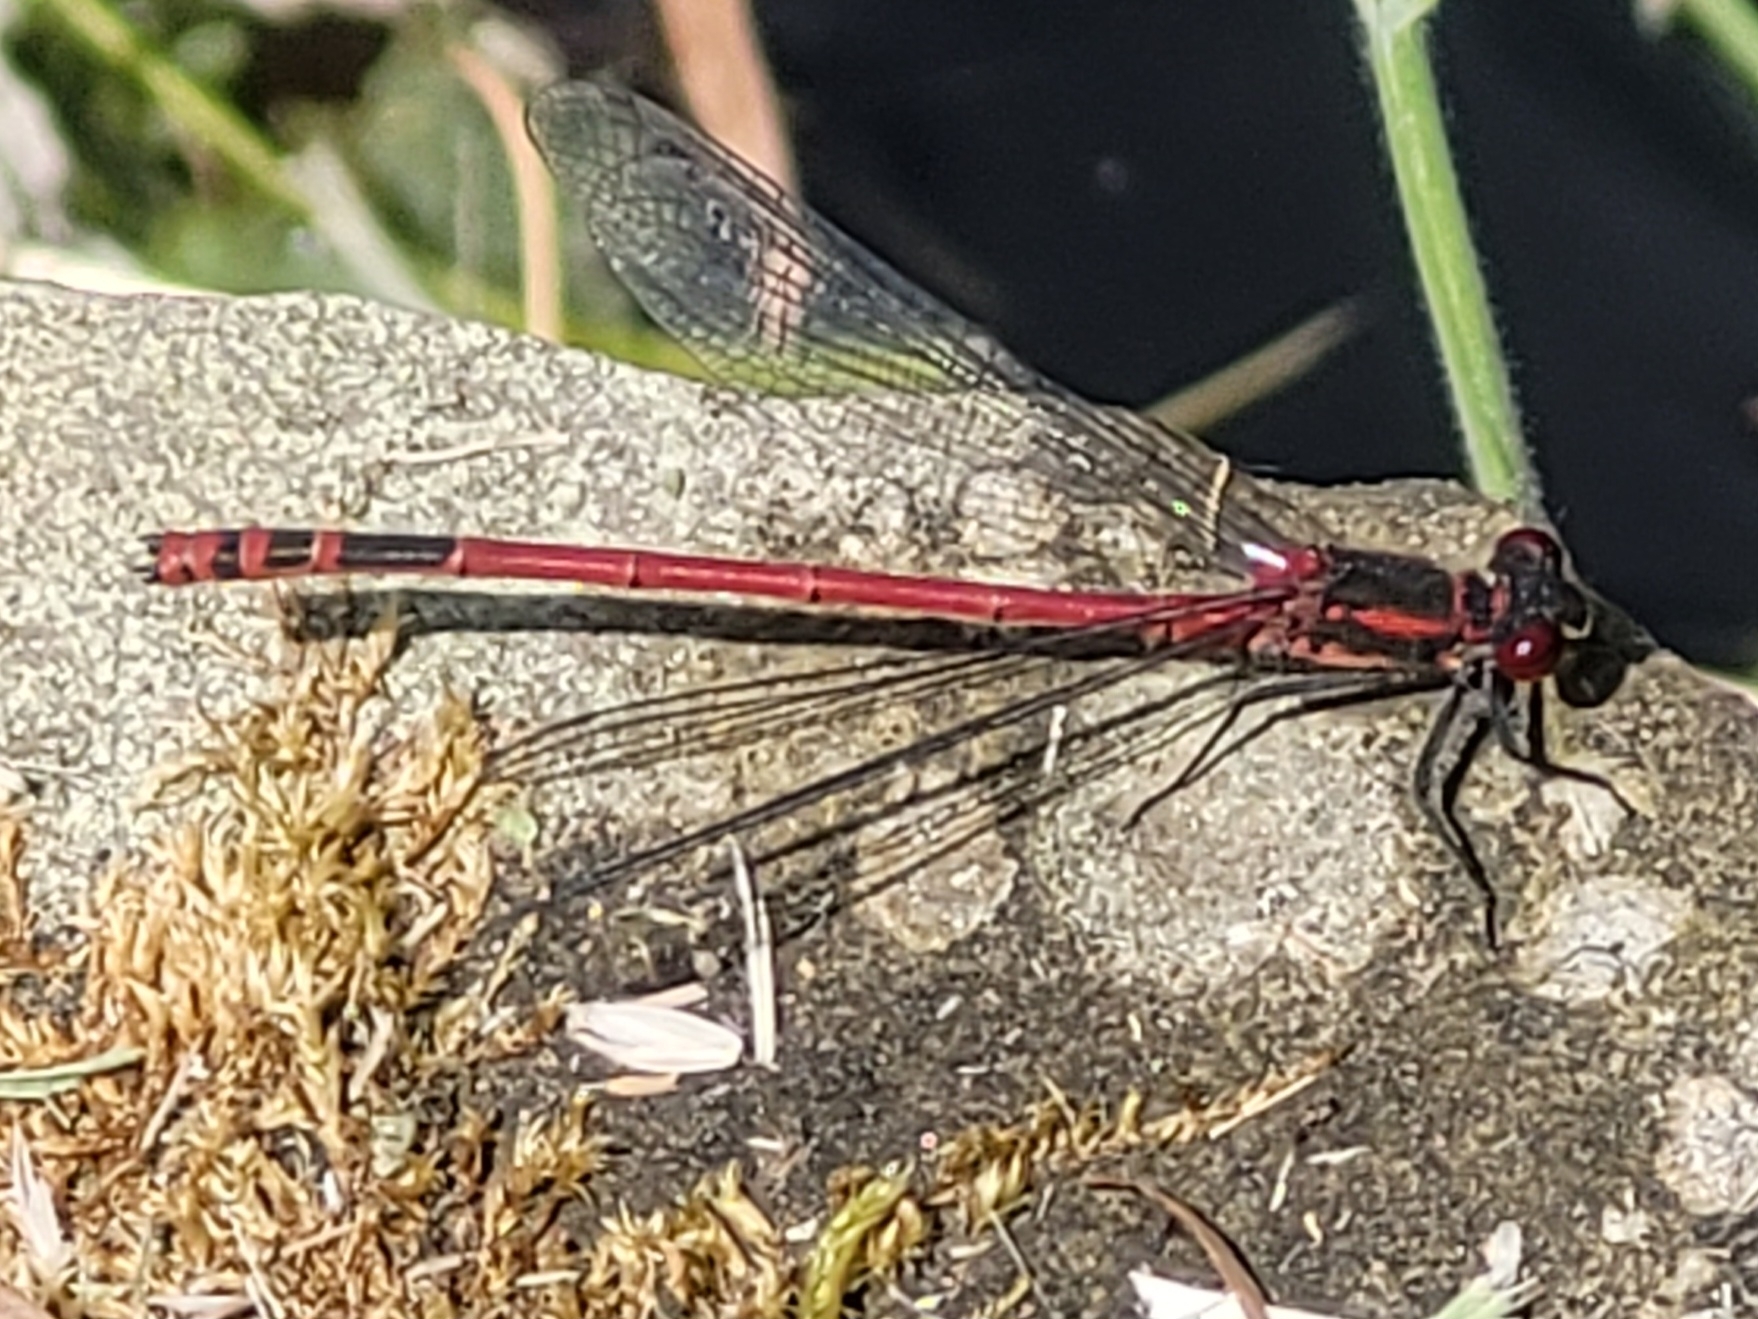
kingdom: Animalia
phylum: Arthropoda
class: Insecta
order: Odonata
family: Coenagrionidae
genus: Pyrrhosoma
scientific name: Pyrrhosoma nymphula
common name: Large red damsel
